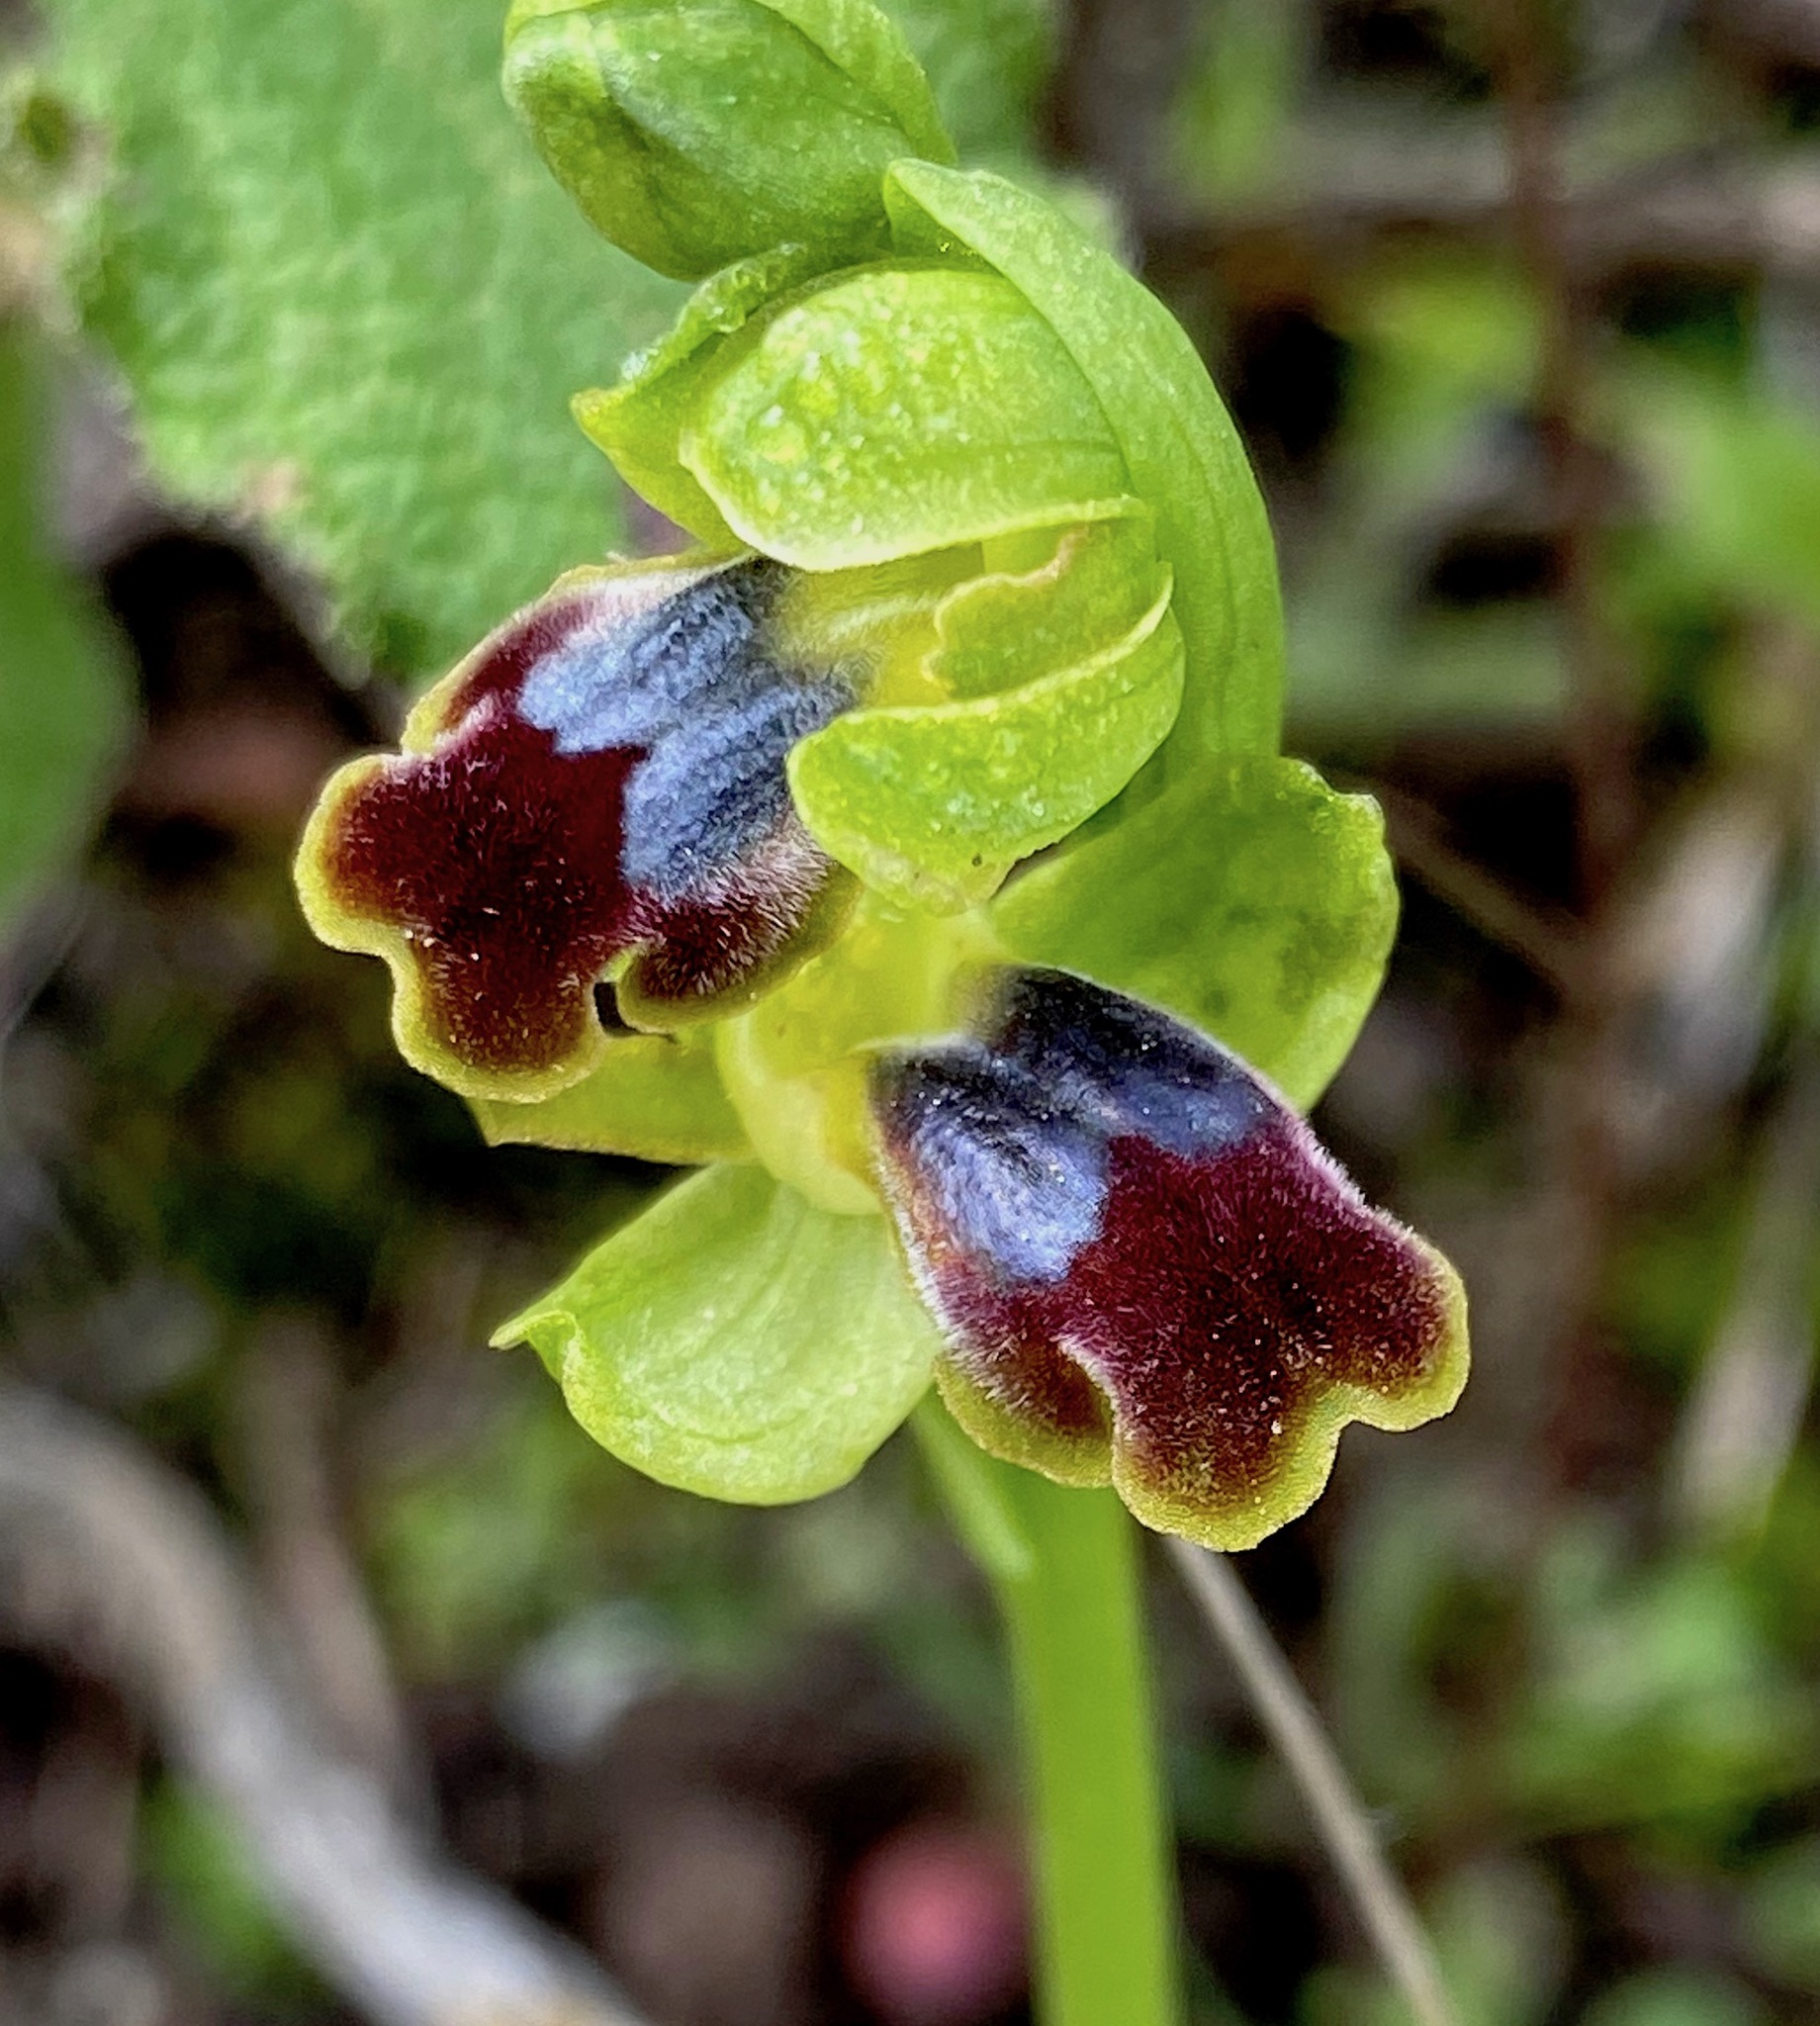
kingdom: Plantae
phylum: Tracheophyta
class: Liliopsida
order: Asparagales
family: Orchidaceae
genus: Ophrys
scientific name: Ophrys fusca
